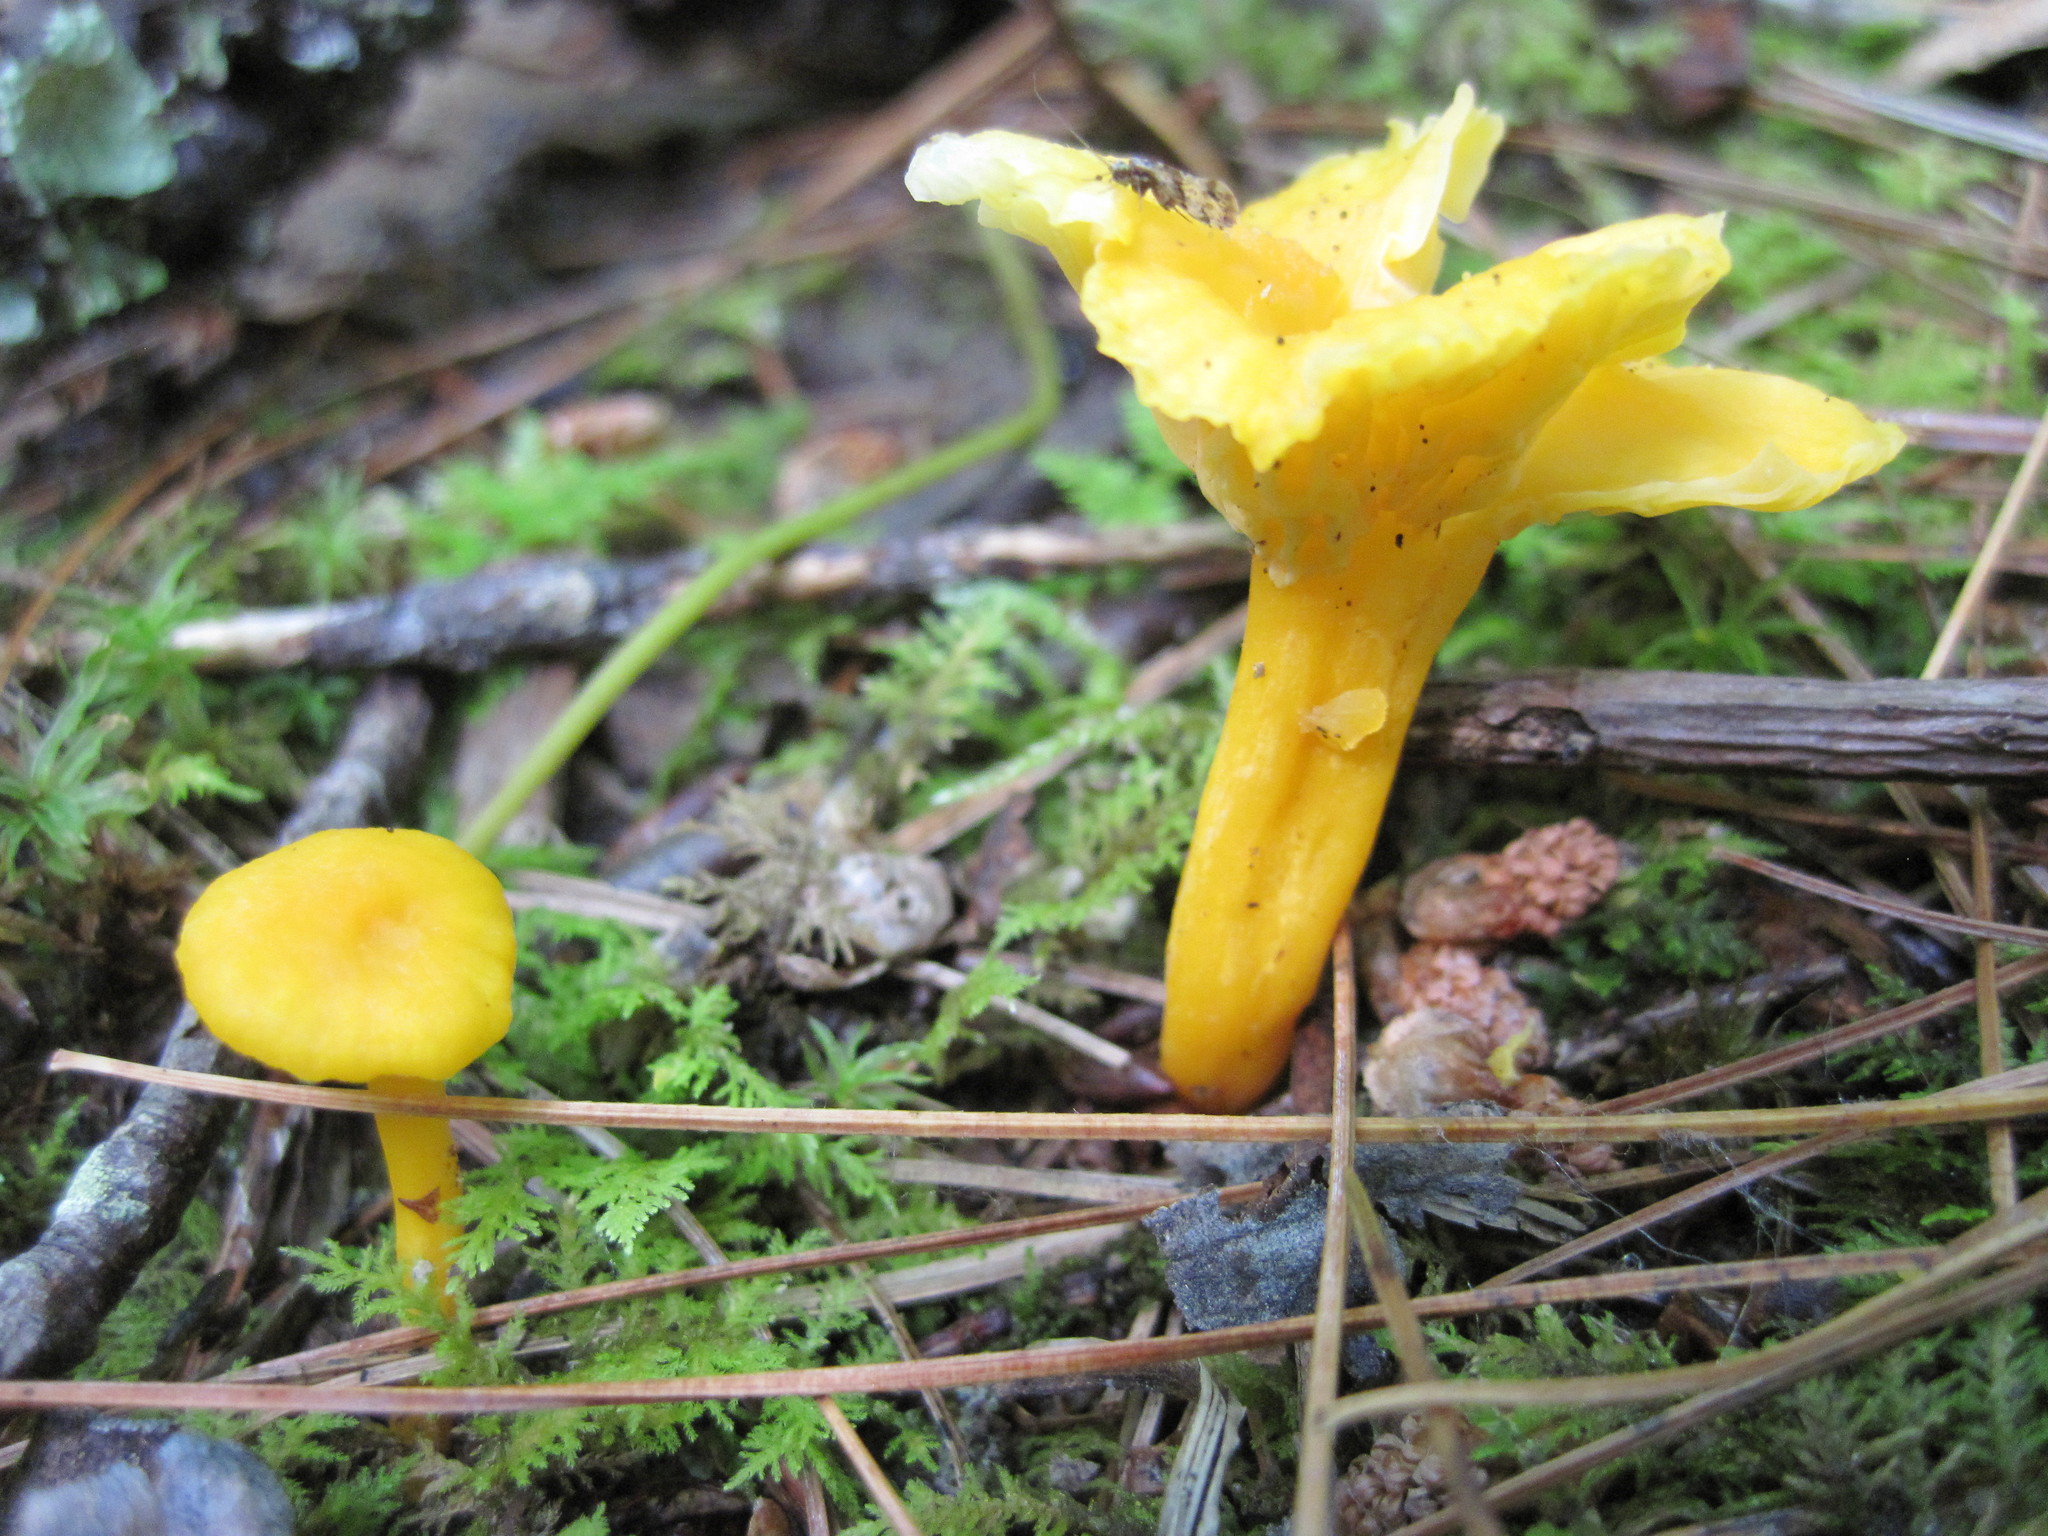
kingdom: Fungi
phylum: Basidiomycota
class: Agaricomycetes
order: Agaricales
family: Hygrophoraceae
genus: Hygrocybe
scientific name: Hygrocybe flavescens
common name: Golden waxy cap
